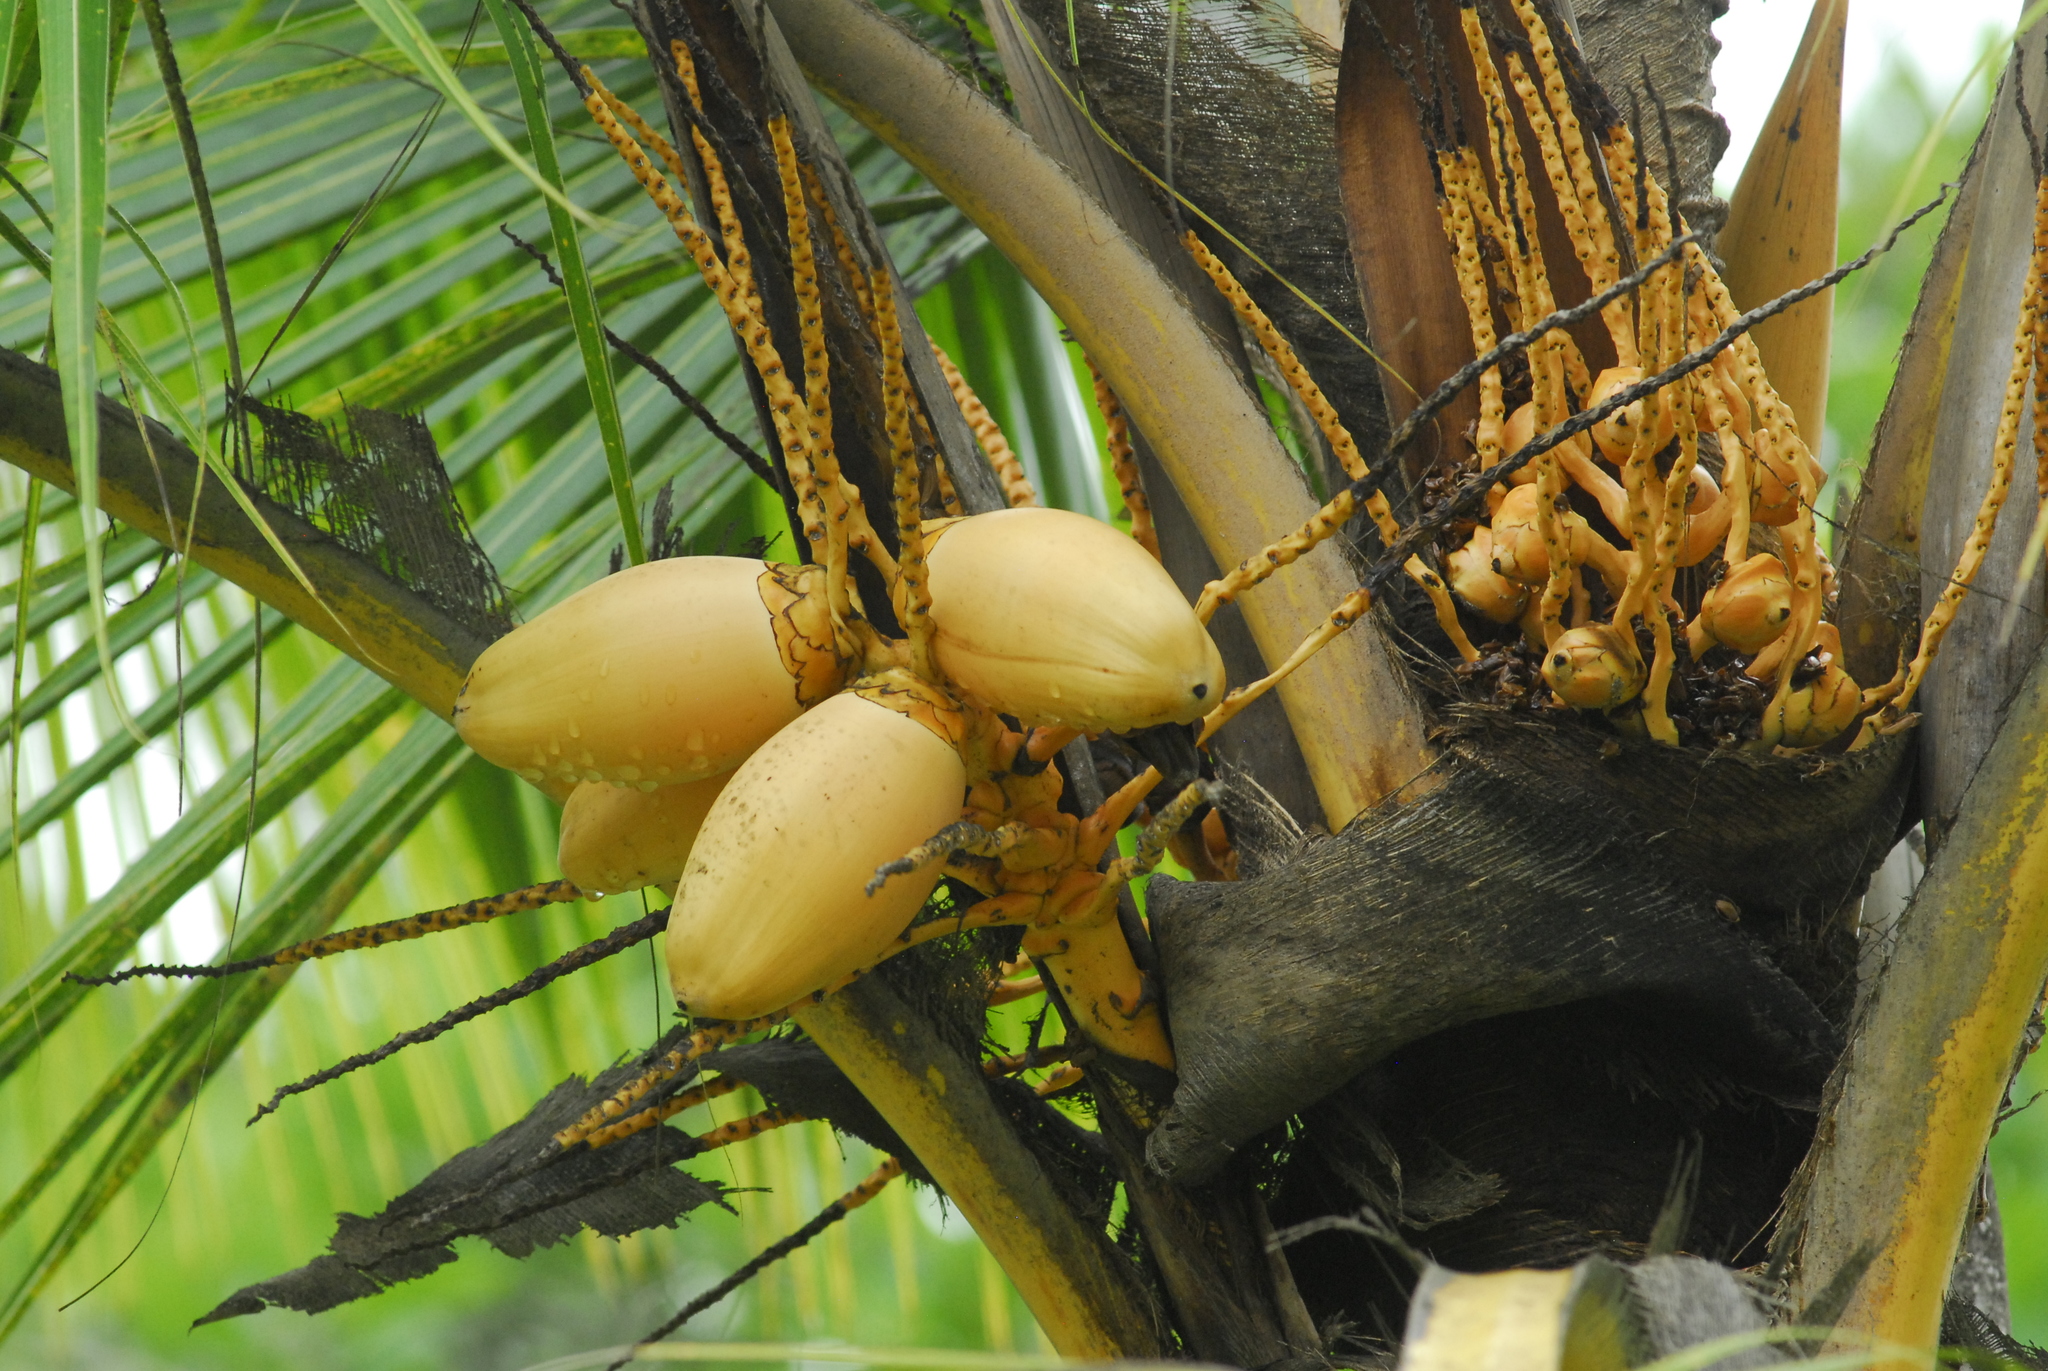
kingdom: Plantae
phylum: Tracheophyta
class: Liliopsida
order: Arecales
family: Arecaceae
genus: Cocos
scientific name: Cocos nucifera
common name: Coconut palm
